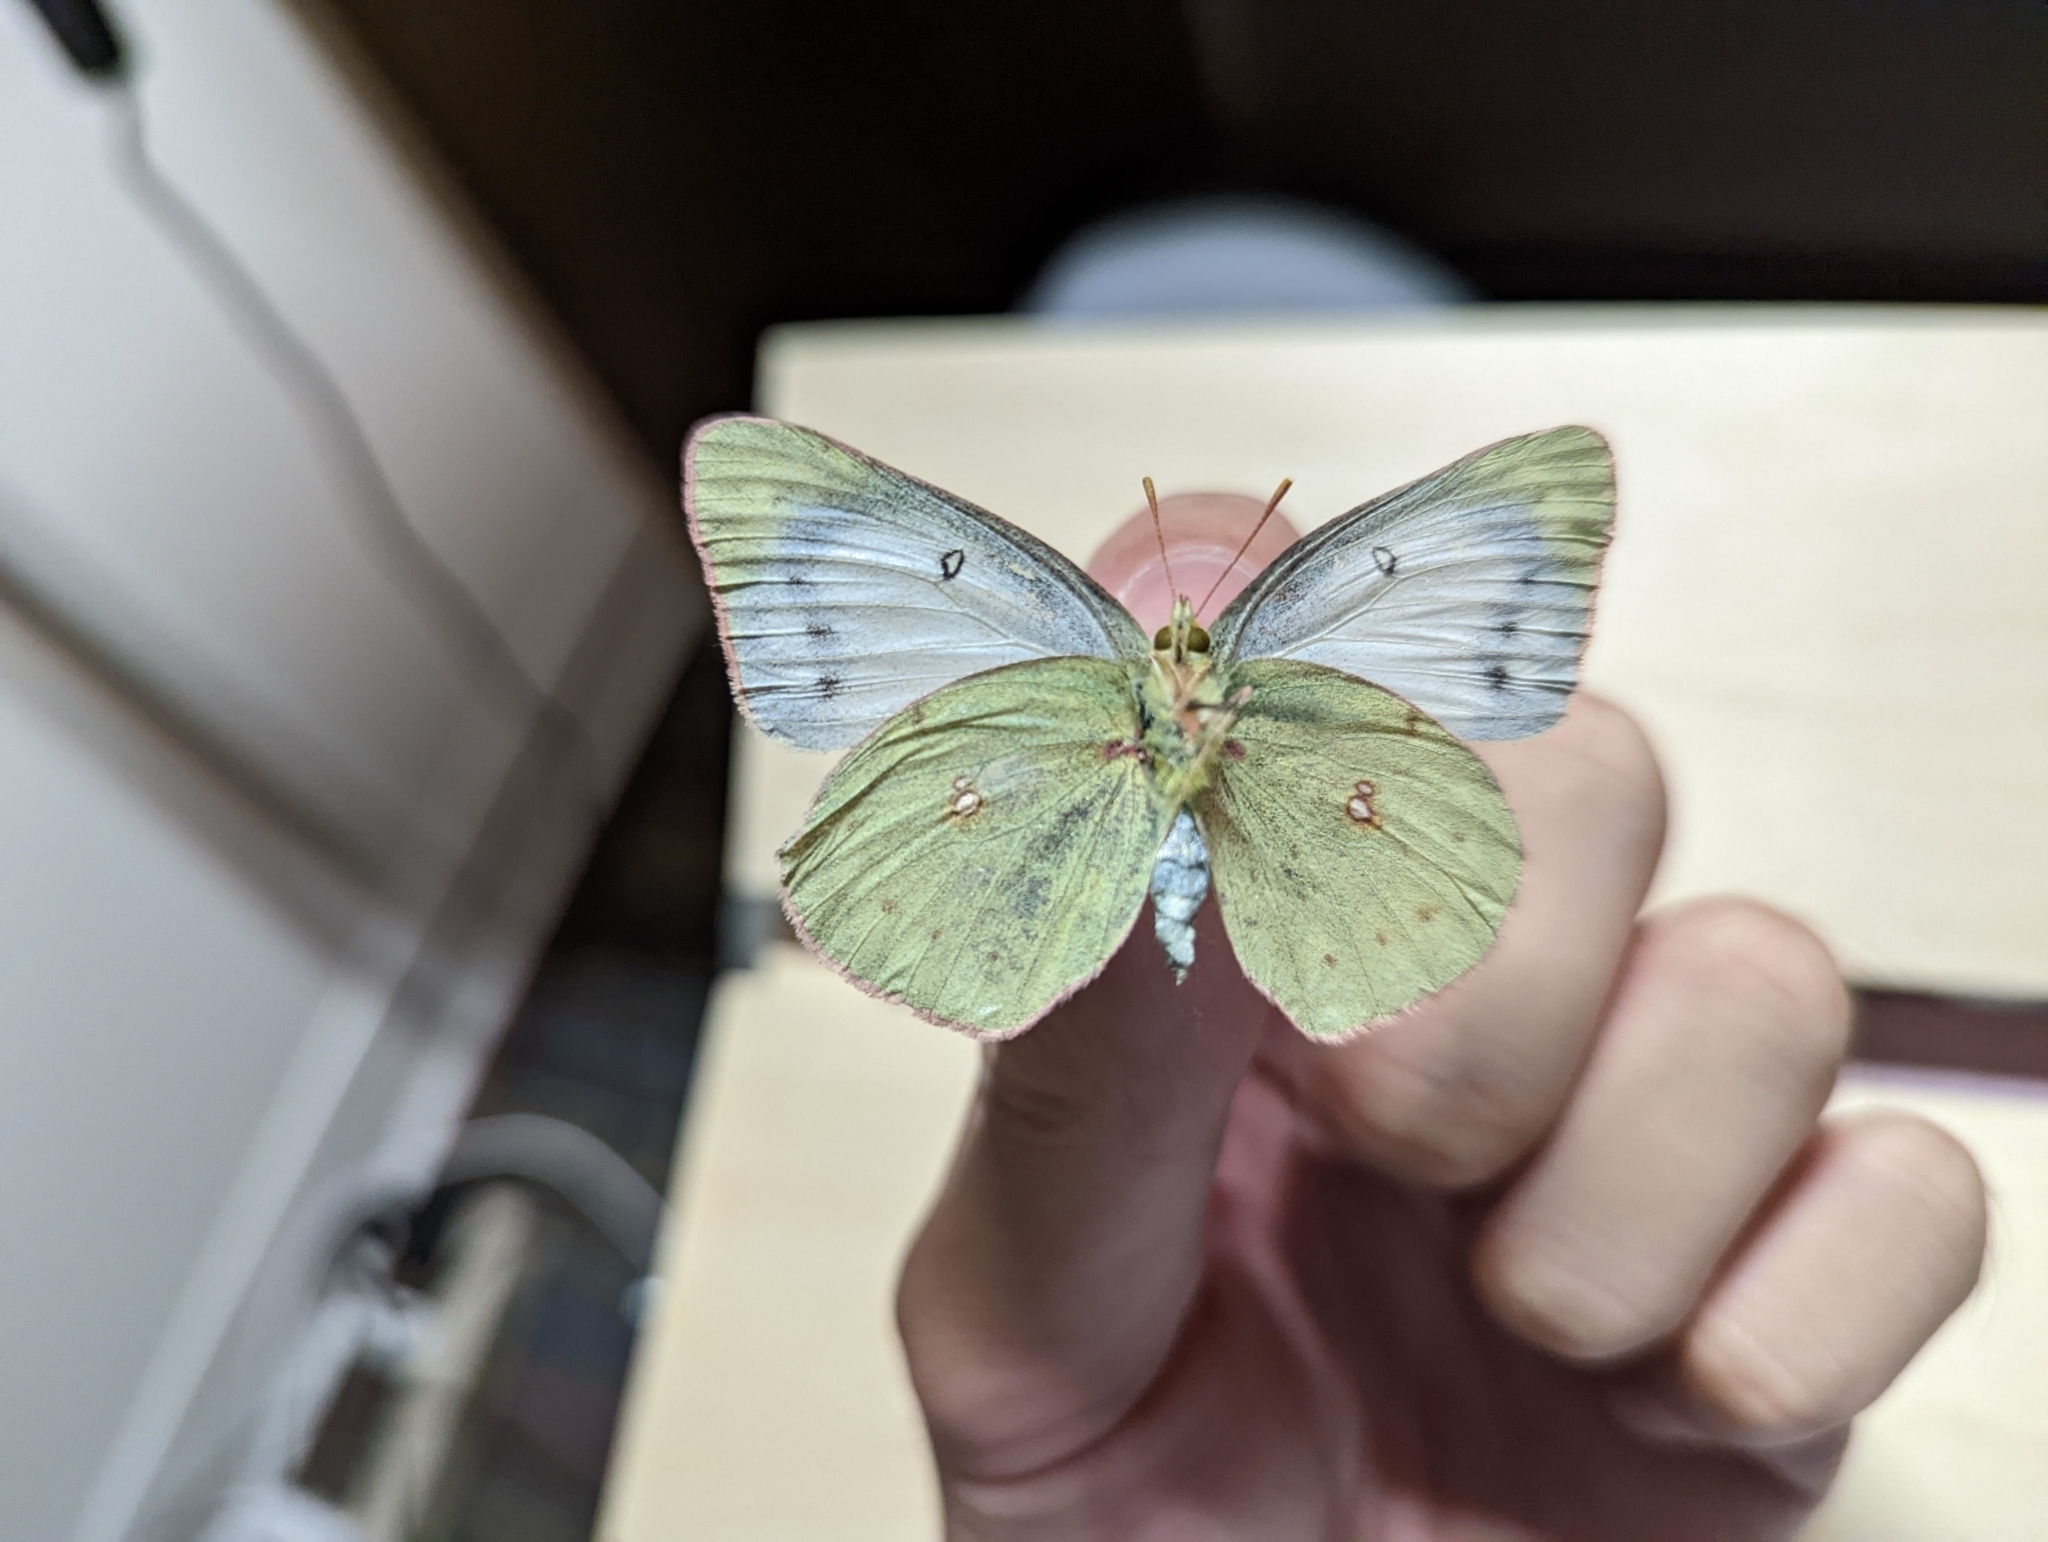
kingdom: Animalia
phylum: Arthropoda
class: Insecta
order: Lepidoptera
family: Pieridae
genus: Colias
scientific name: Colias eurytheme
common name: Alfalfa butterfly
